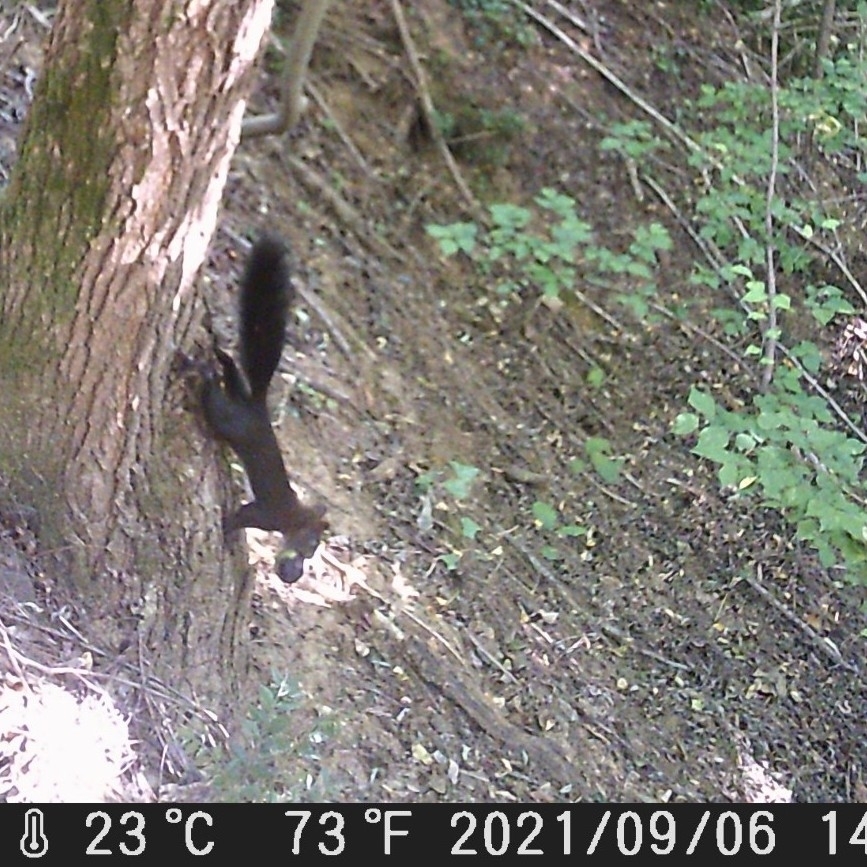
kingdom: Animalia
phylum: Chordata
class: Mammalia
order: Rodentia
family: Sciuridae
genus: Sciurus
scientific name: Sciurus vulgaris
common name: Eurasian red squirrel
